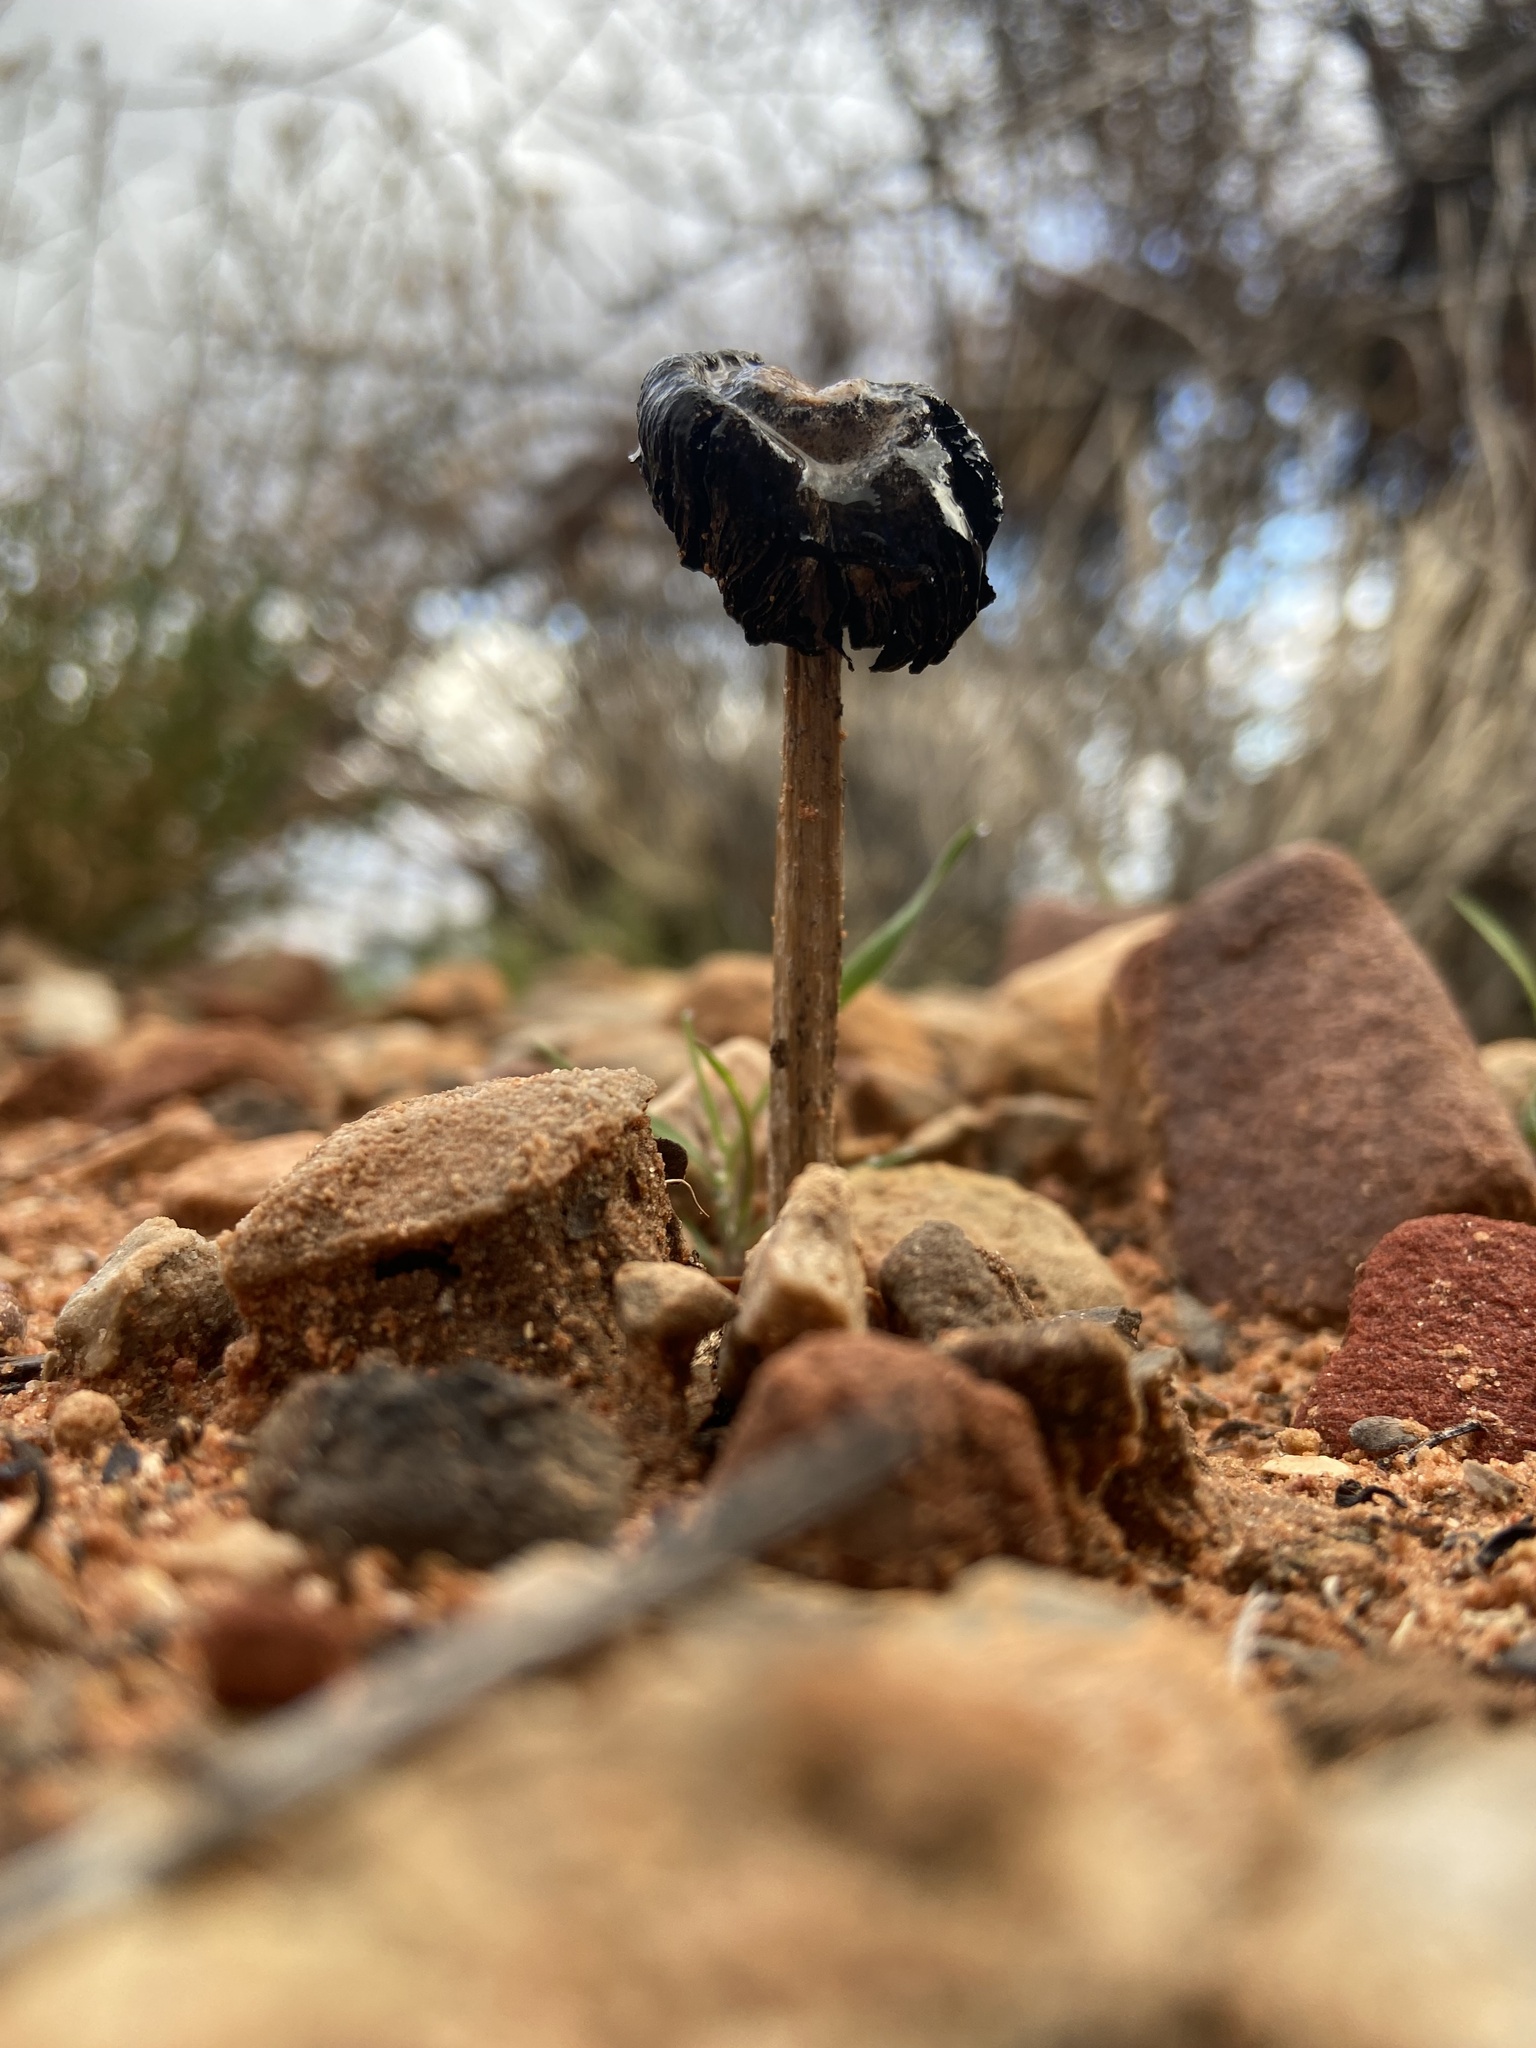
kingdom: Fungi
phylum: Basidiomycota
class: Agaricomycetes
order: Agaricales
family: Agaricaceae
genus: Montagnea
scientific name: Montagnea arenaria
